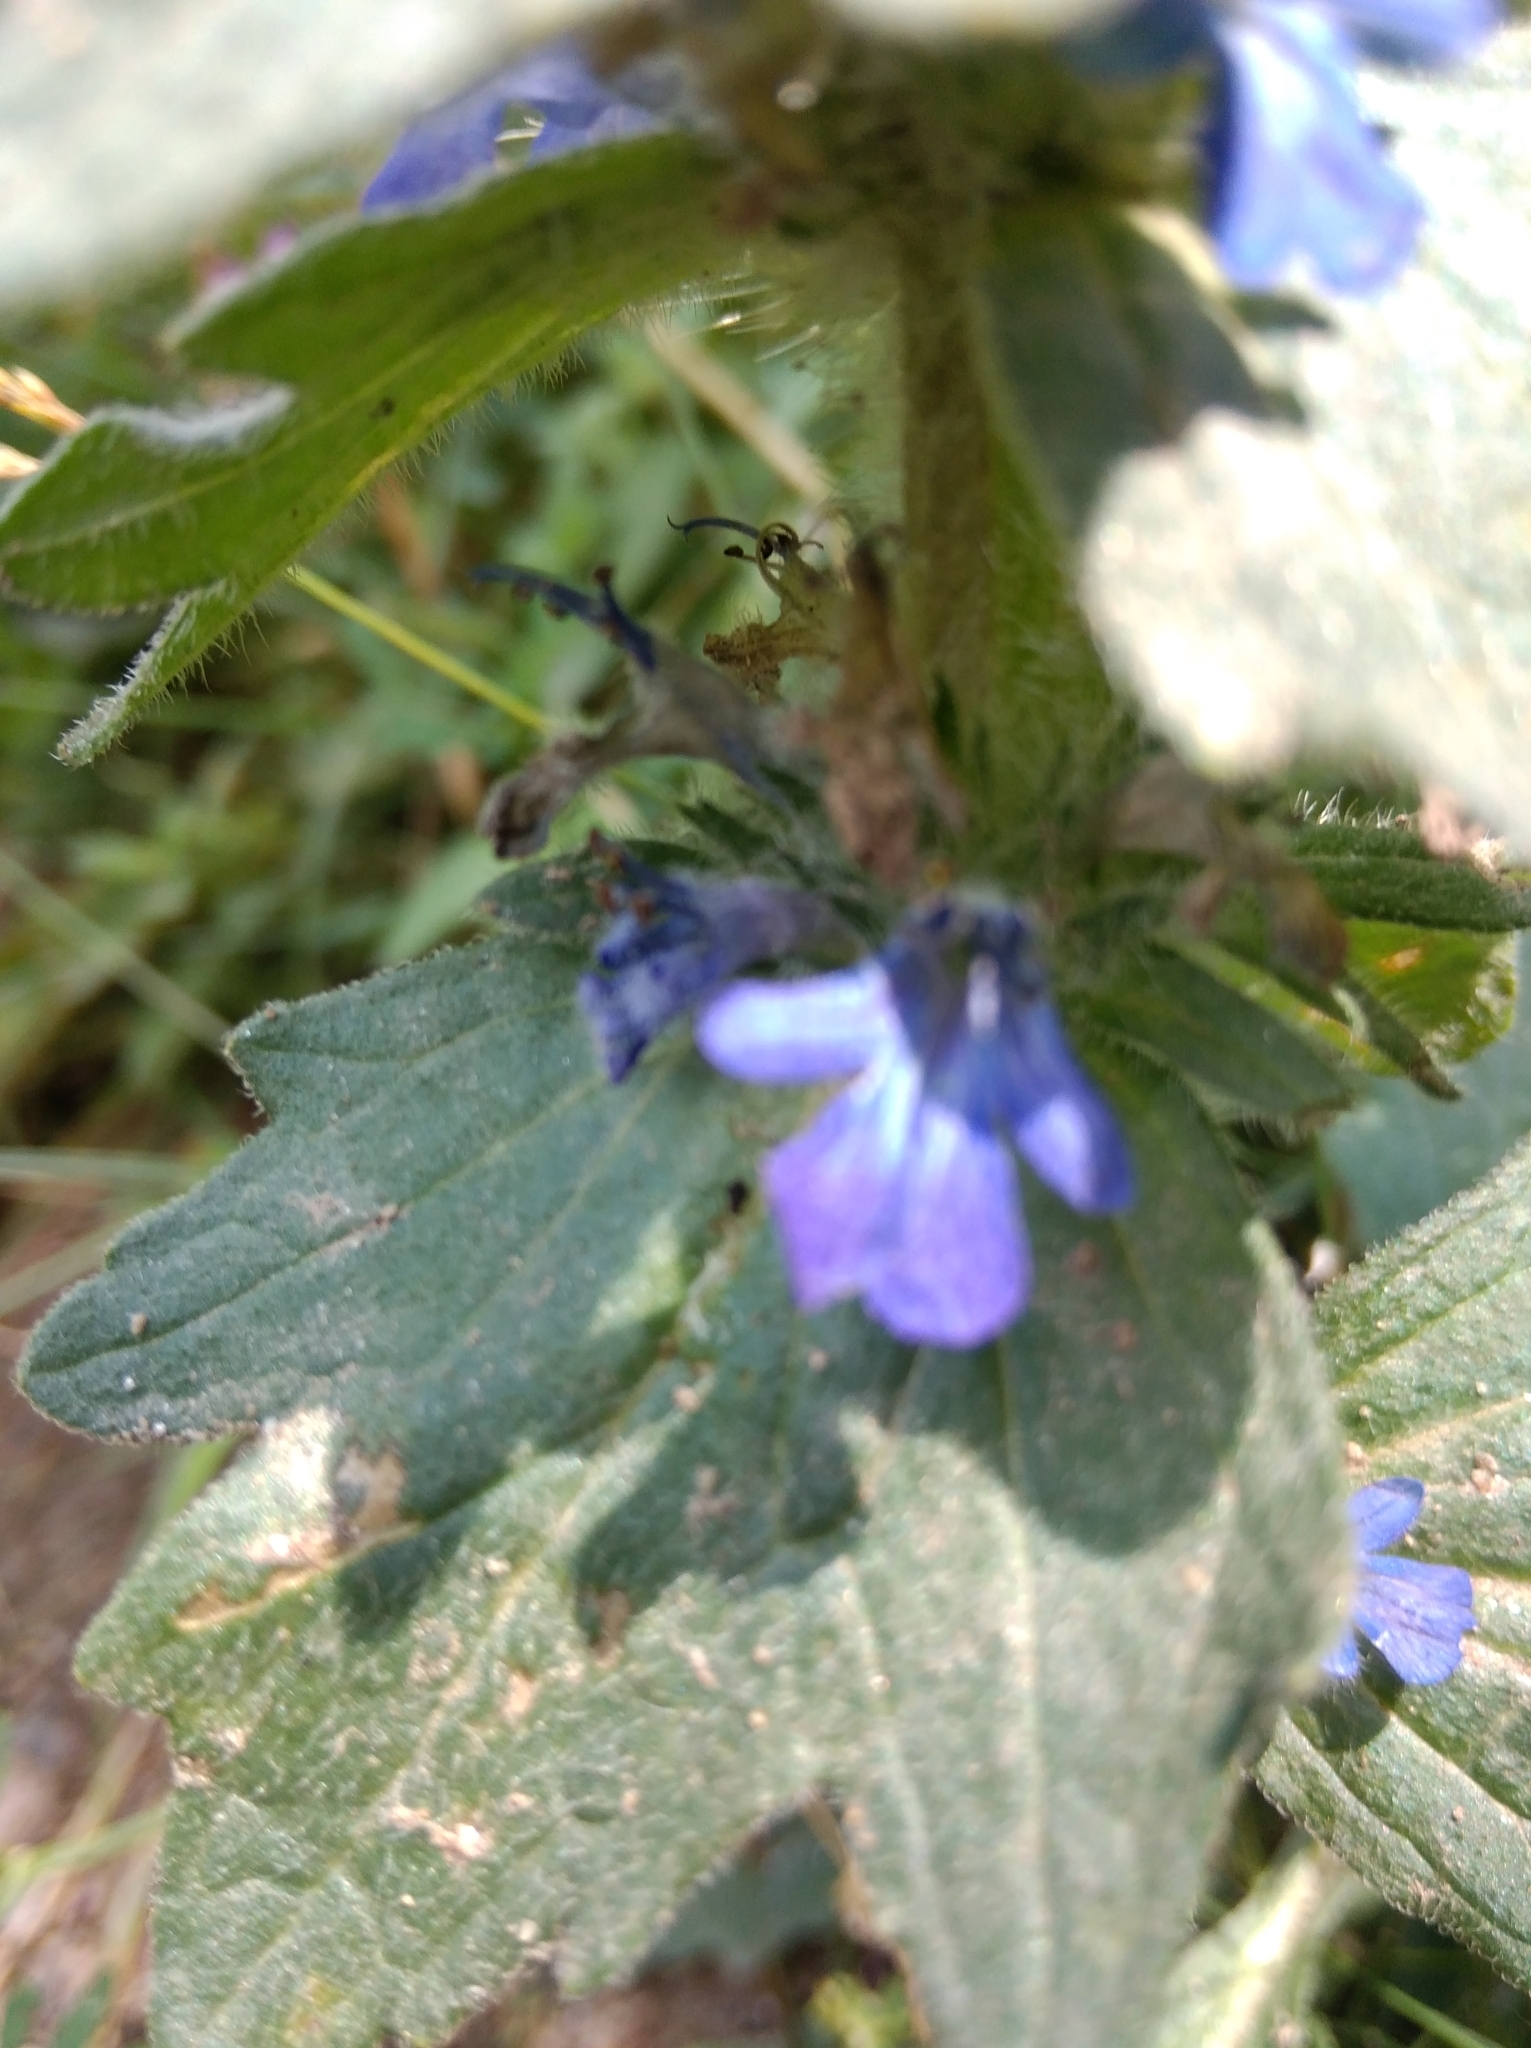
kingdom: Plantae
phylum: Tracheophyta
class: Magnoliopsida
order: Lamiales
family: Lamiaceae
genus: Ajuga
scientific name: Ajuga genevensis
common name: Blue bugle
